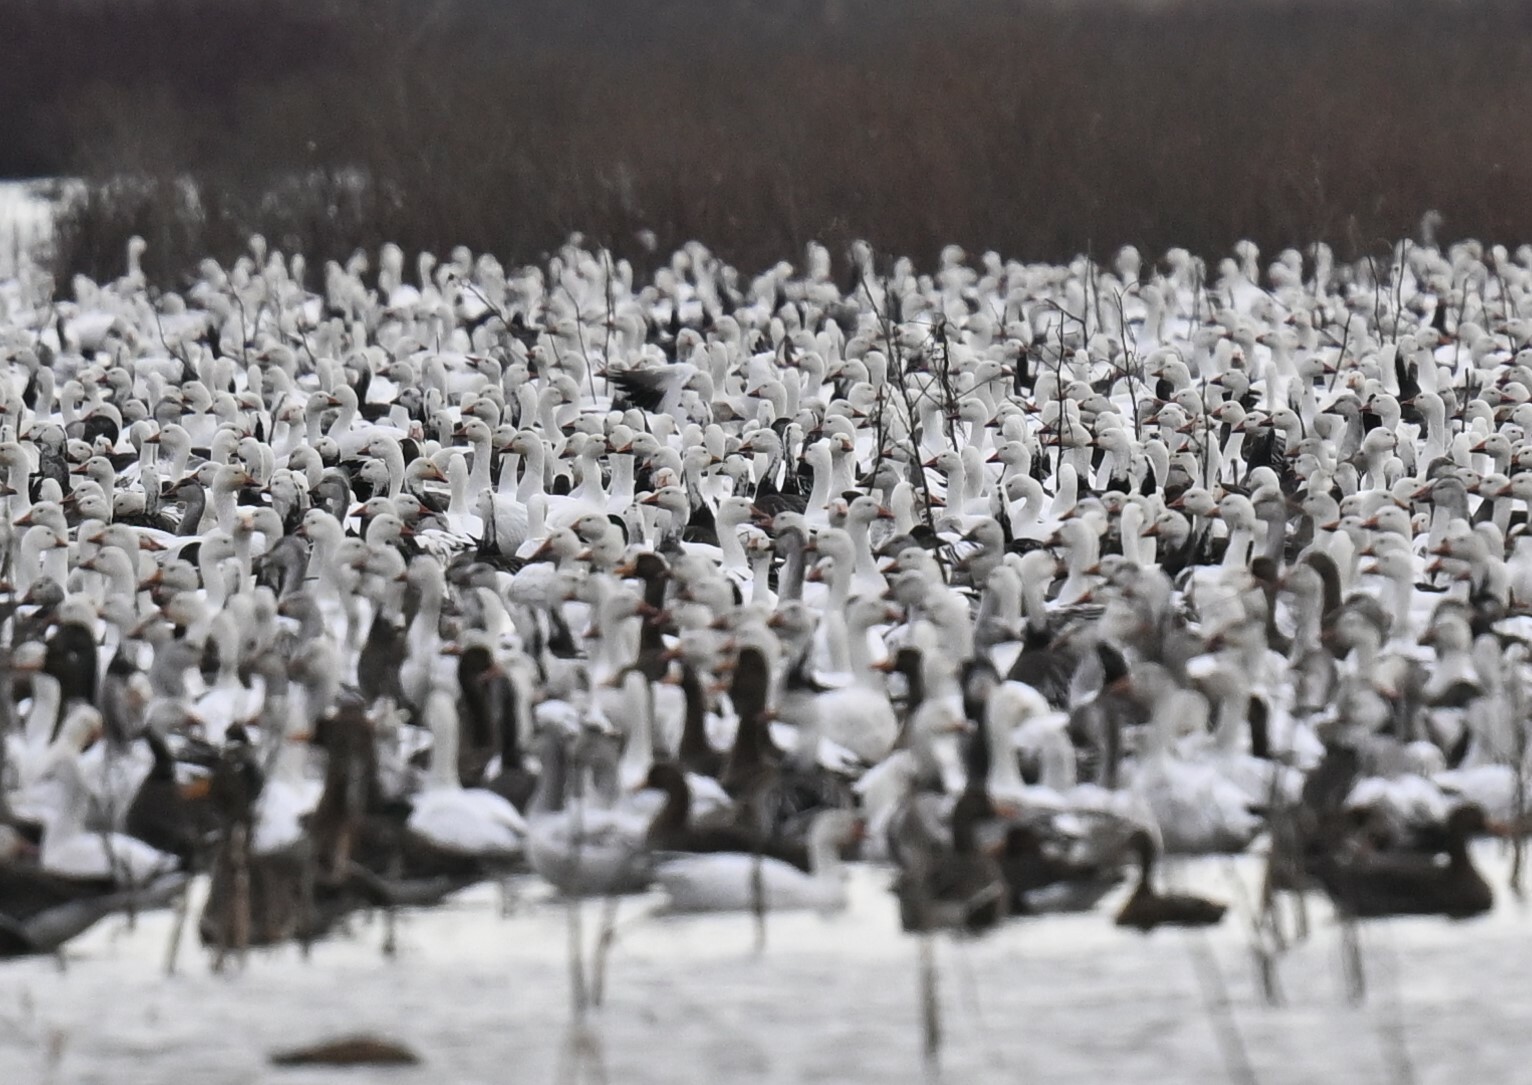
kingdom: Animalia
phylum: Chordata
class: Aves
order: Anseriformes
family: Anatidae
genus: Anser
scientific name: Anser caerulescens
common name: Snow goose
